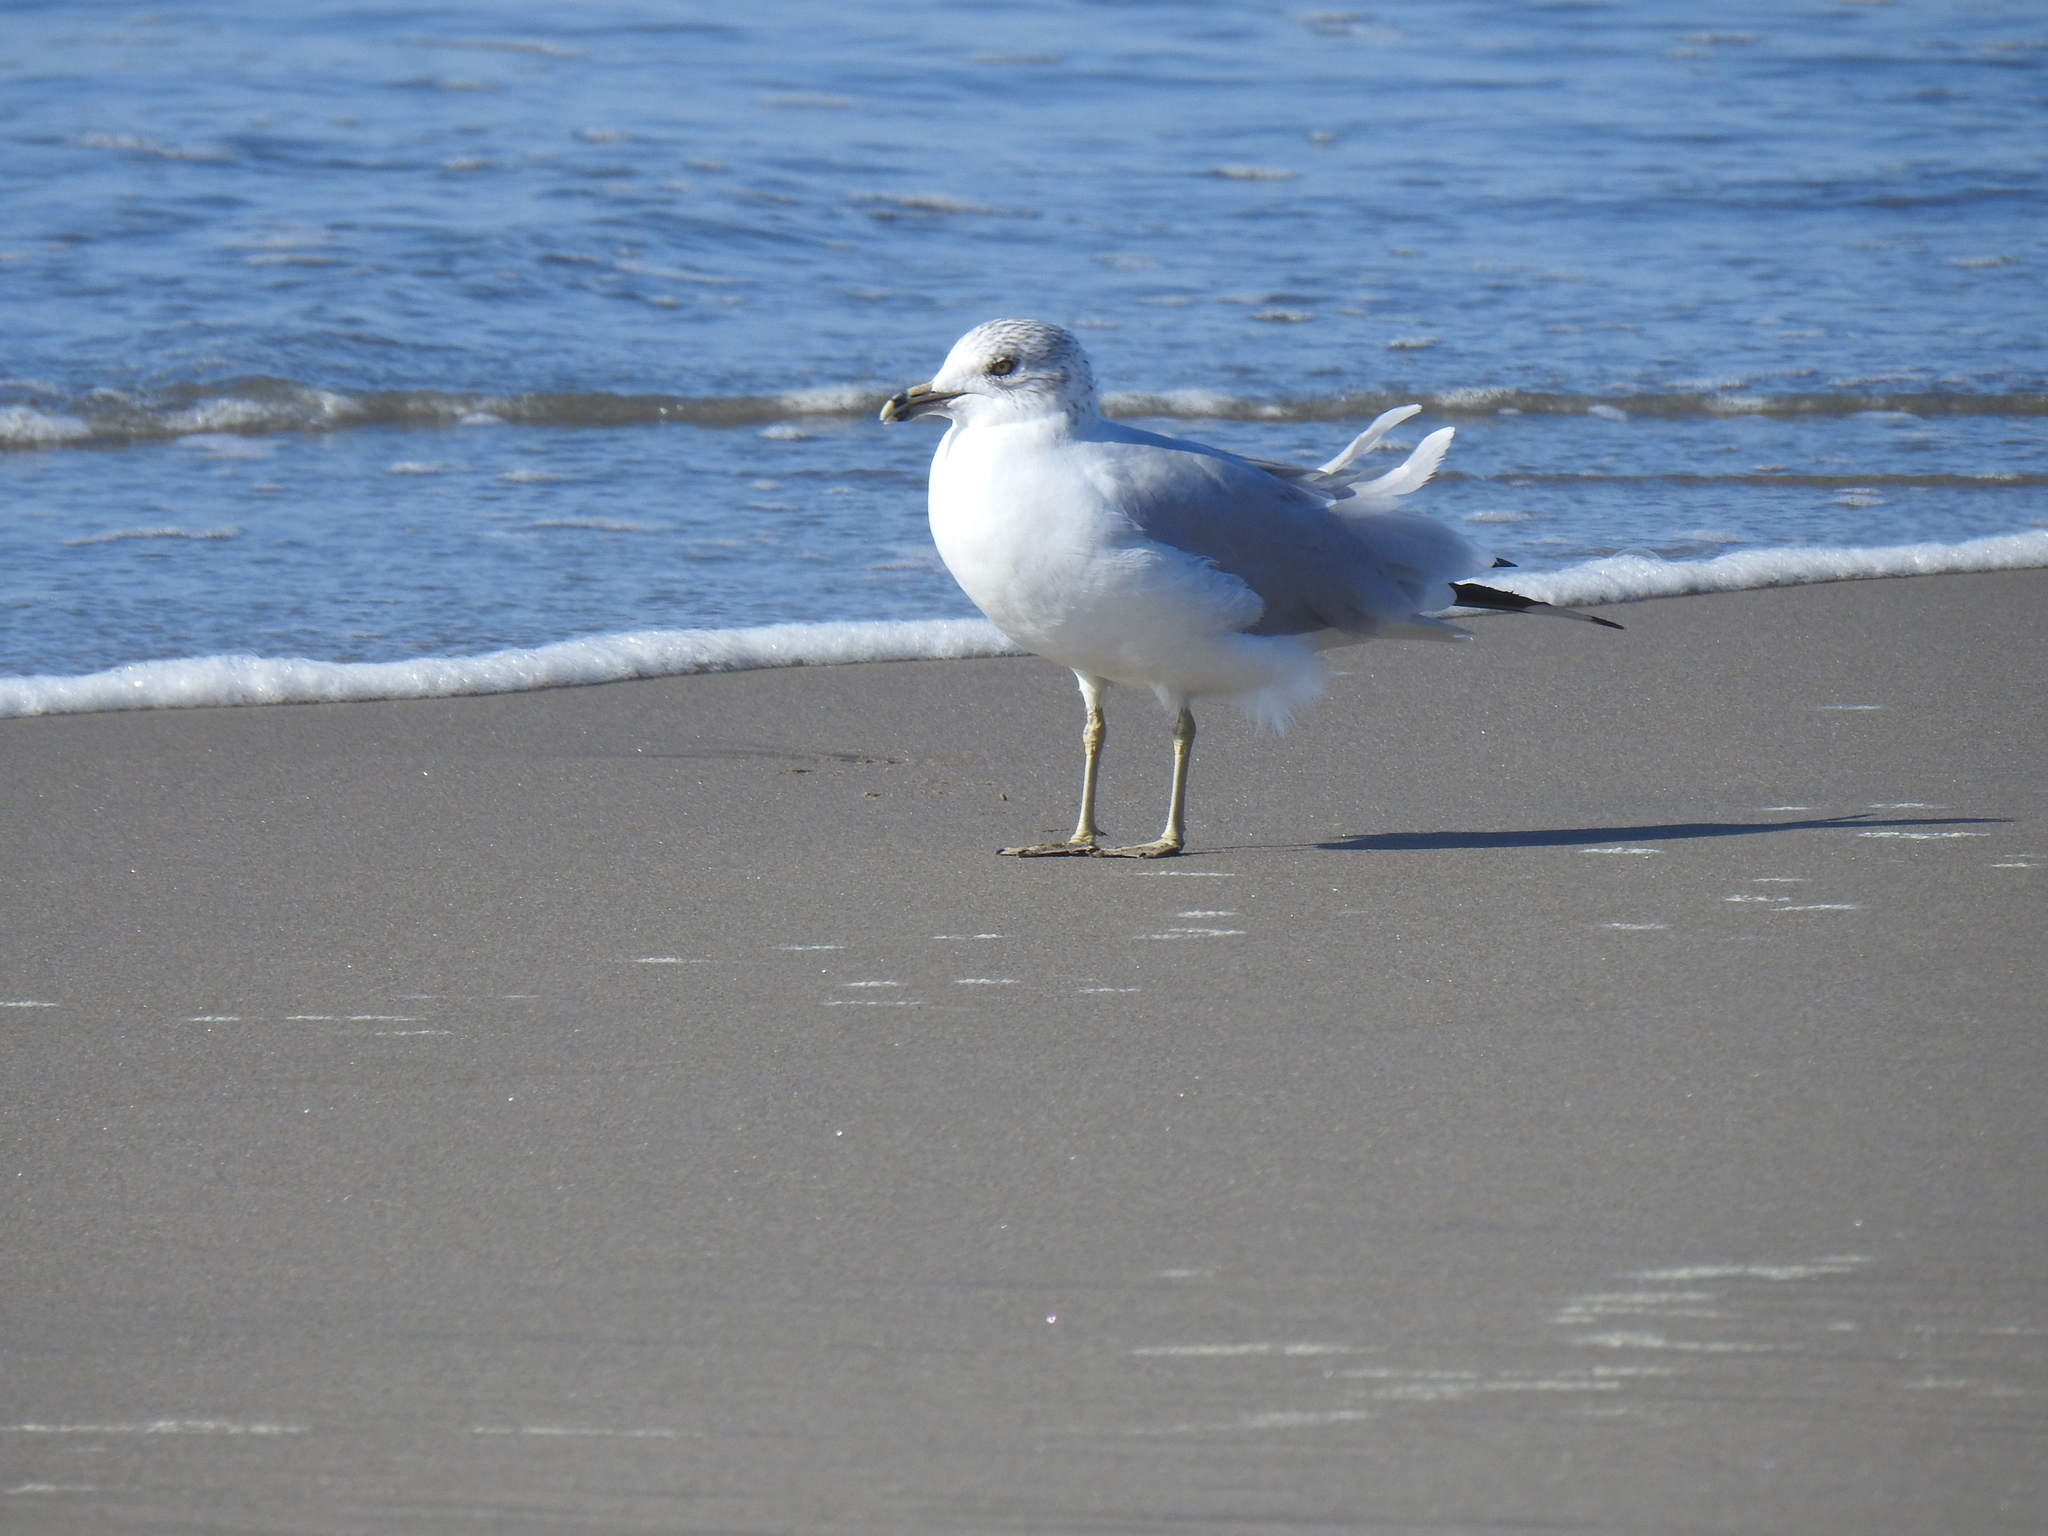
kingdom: Animalia
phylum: Chordata
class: Aves
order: Charadriiformes
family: Laridae
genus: Larus
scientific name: Larus delawarensis
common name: Ring-billed gull
